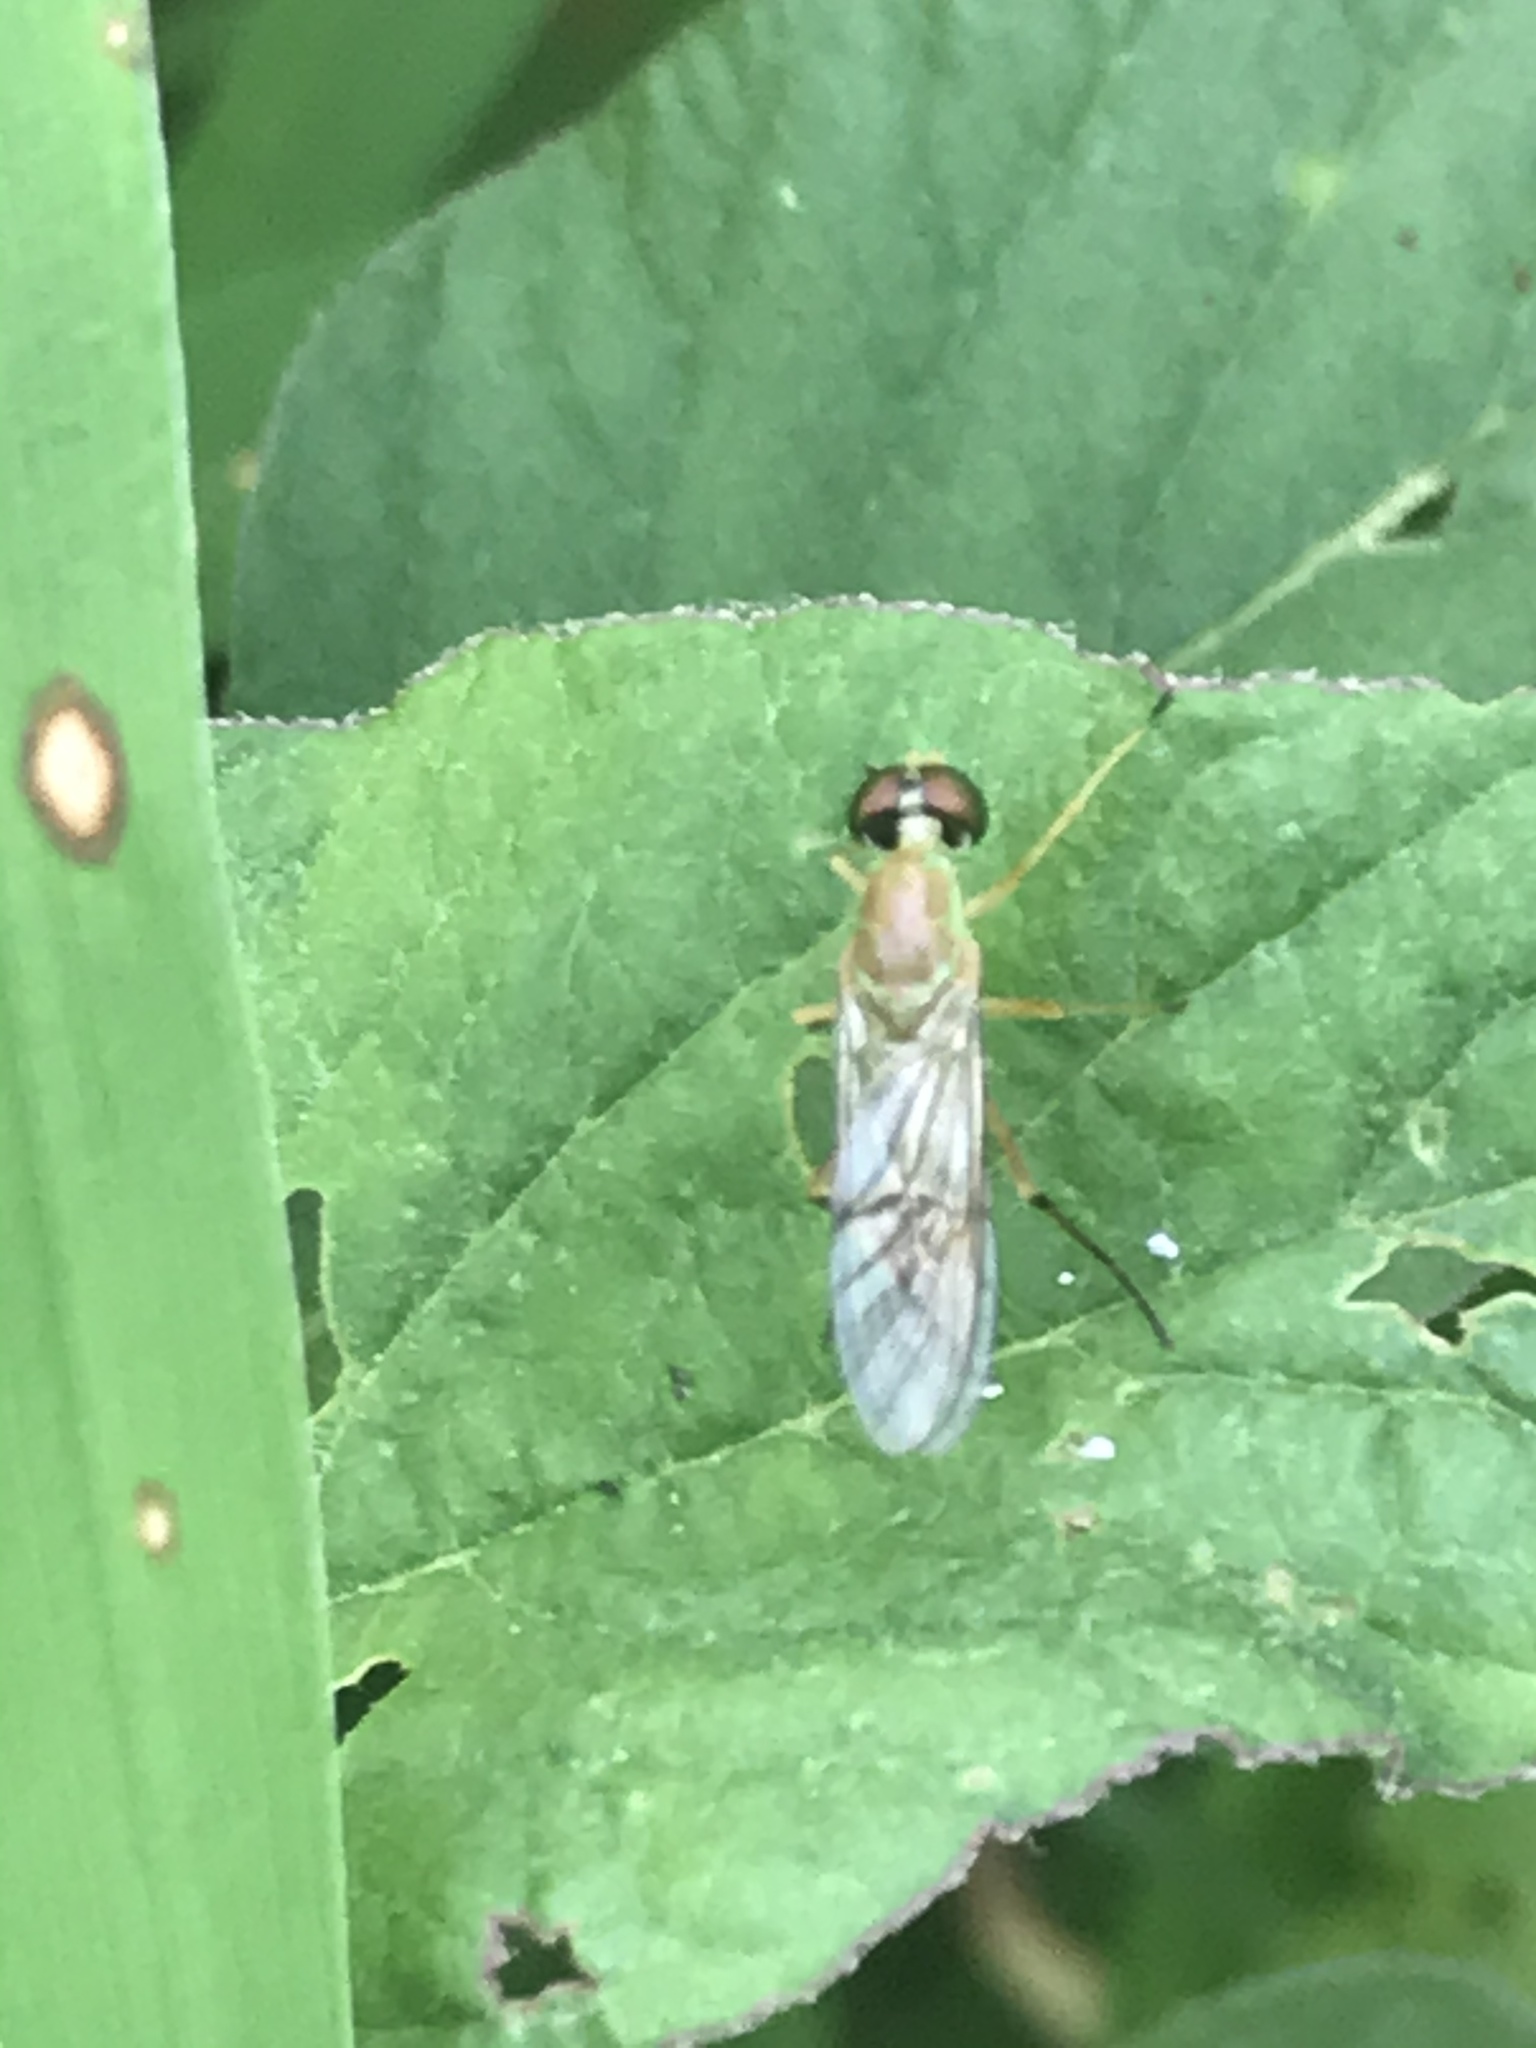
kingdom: Animalia
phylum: Arthropoda
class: Insecta
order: Diptera
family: Stratiomyidae
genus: Ptecticus
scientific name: Ptecticus trivittatus
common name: Compost fly
